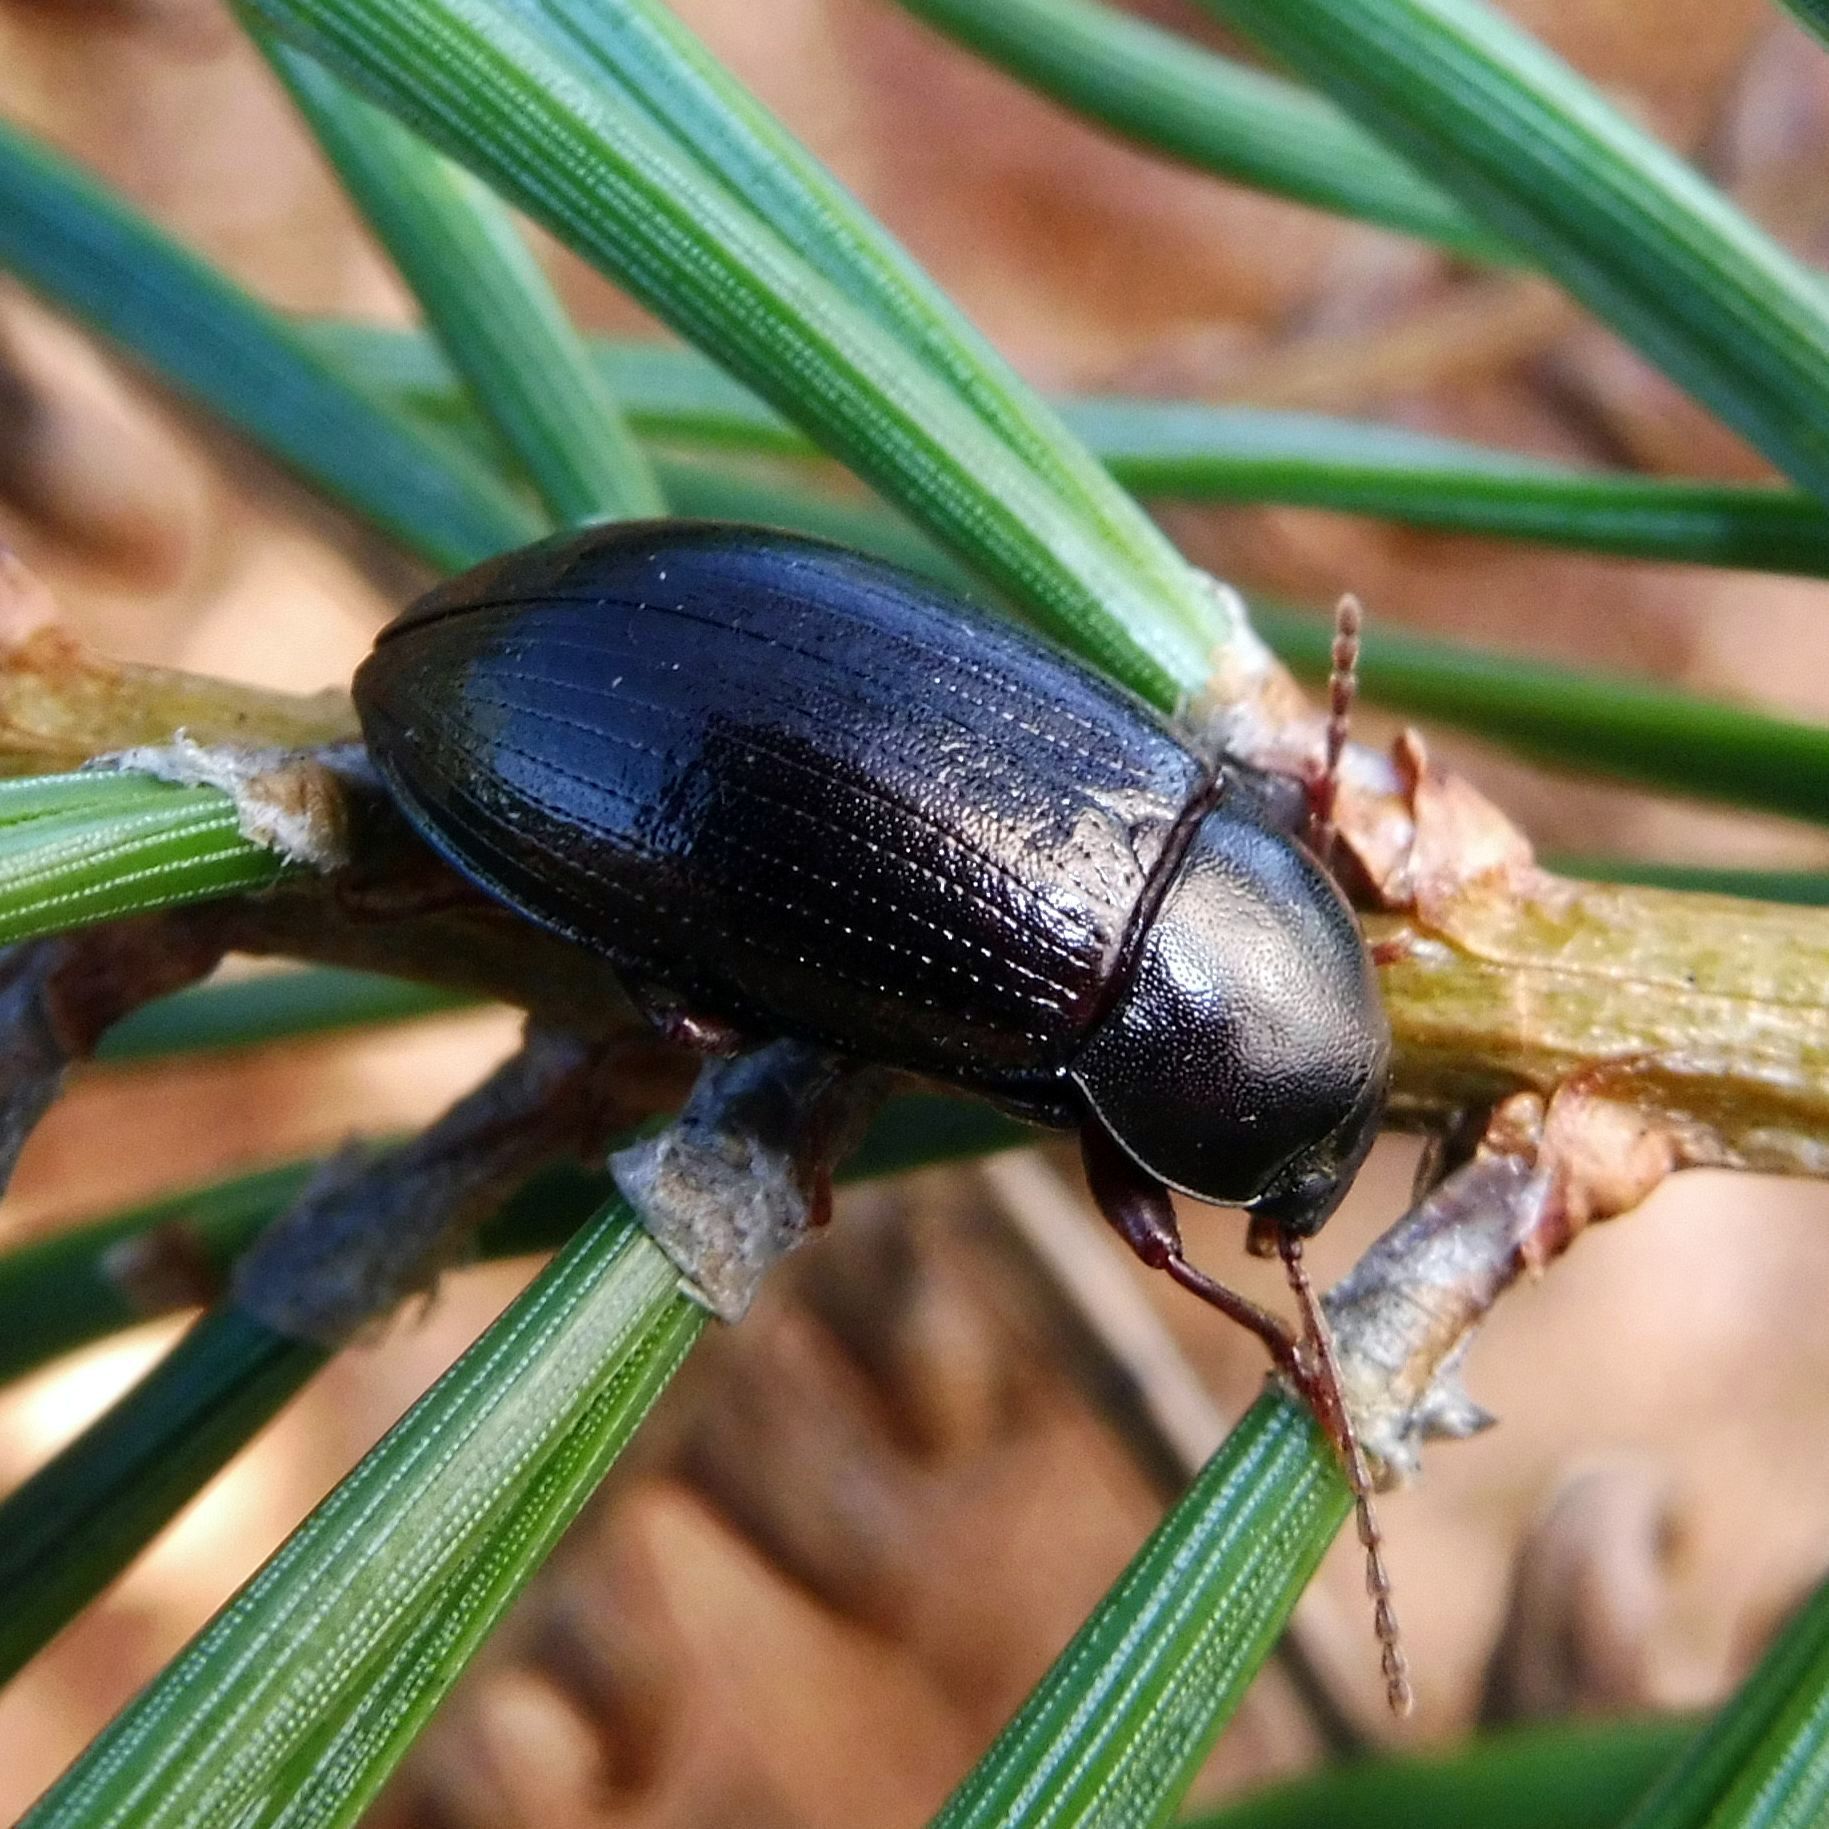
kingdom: Animalia
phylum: Arthropoda
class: Insecta
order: Coleoptera
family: Tenebrionidae
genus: Nalassus
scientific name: Nalassus laevioctostriatus
